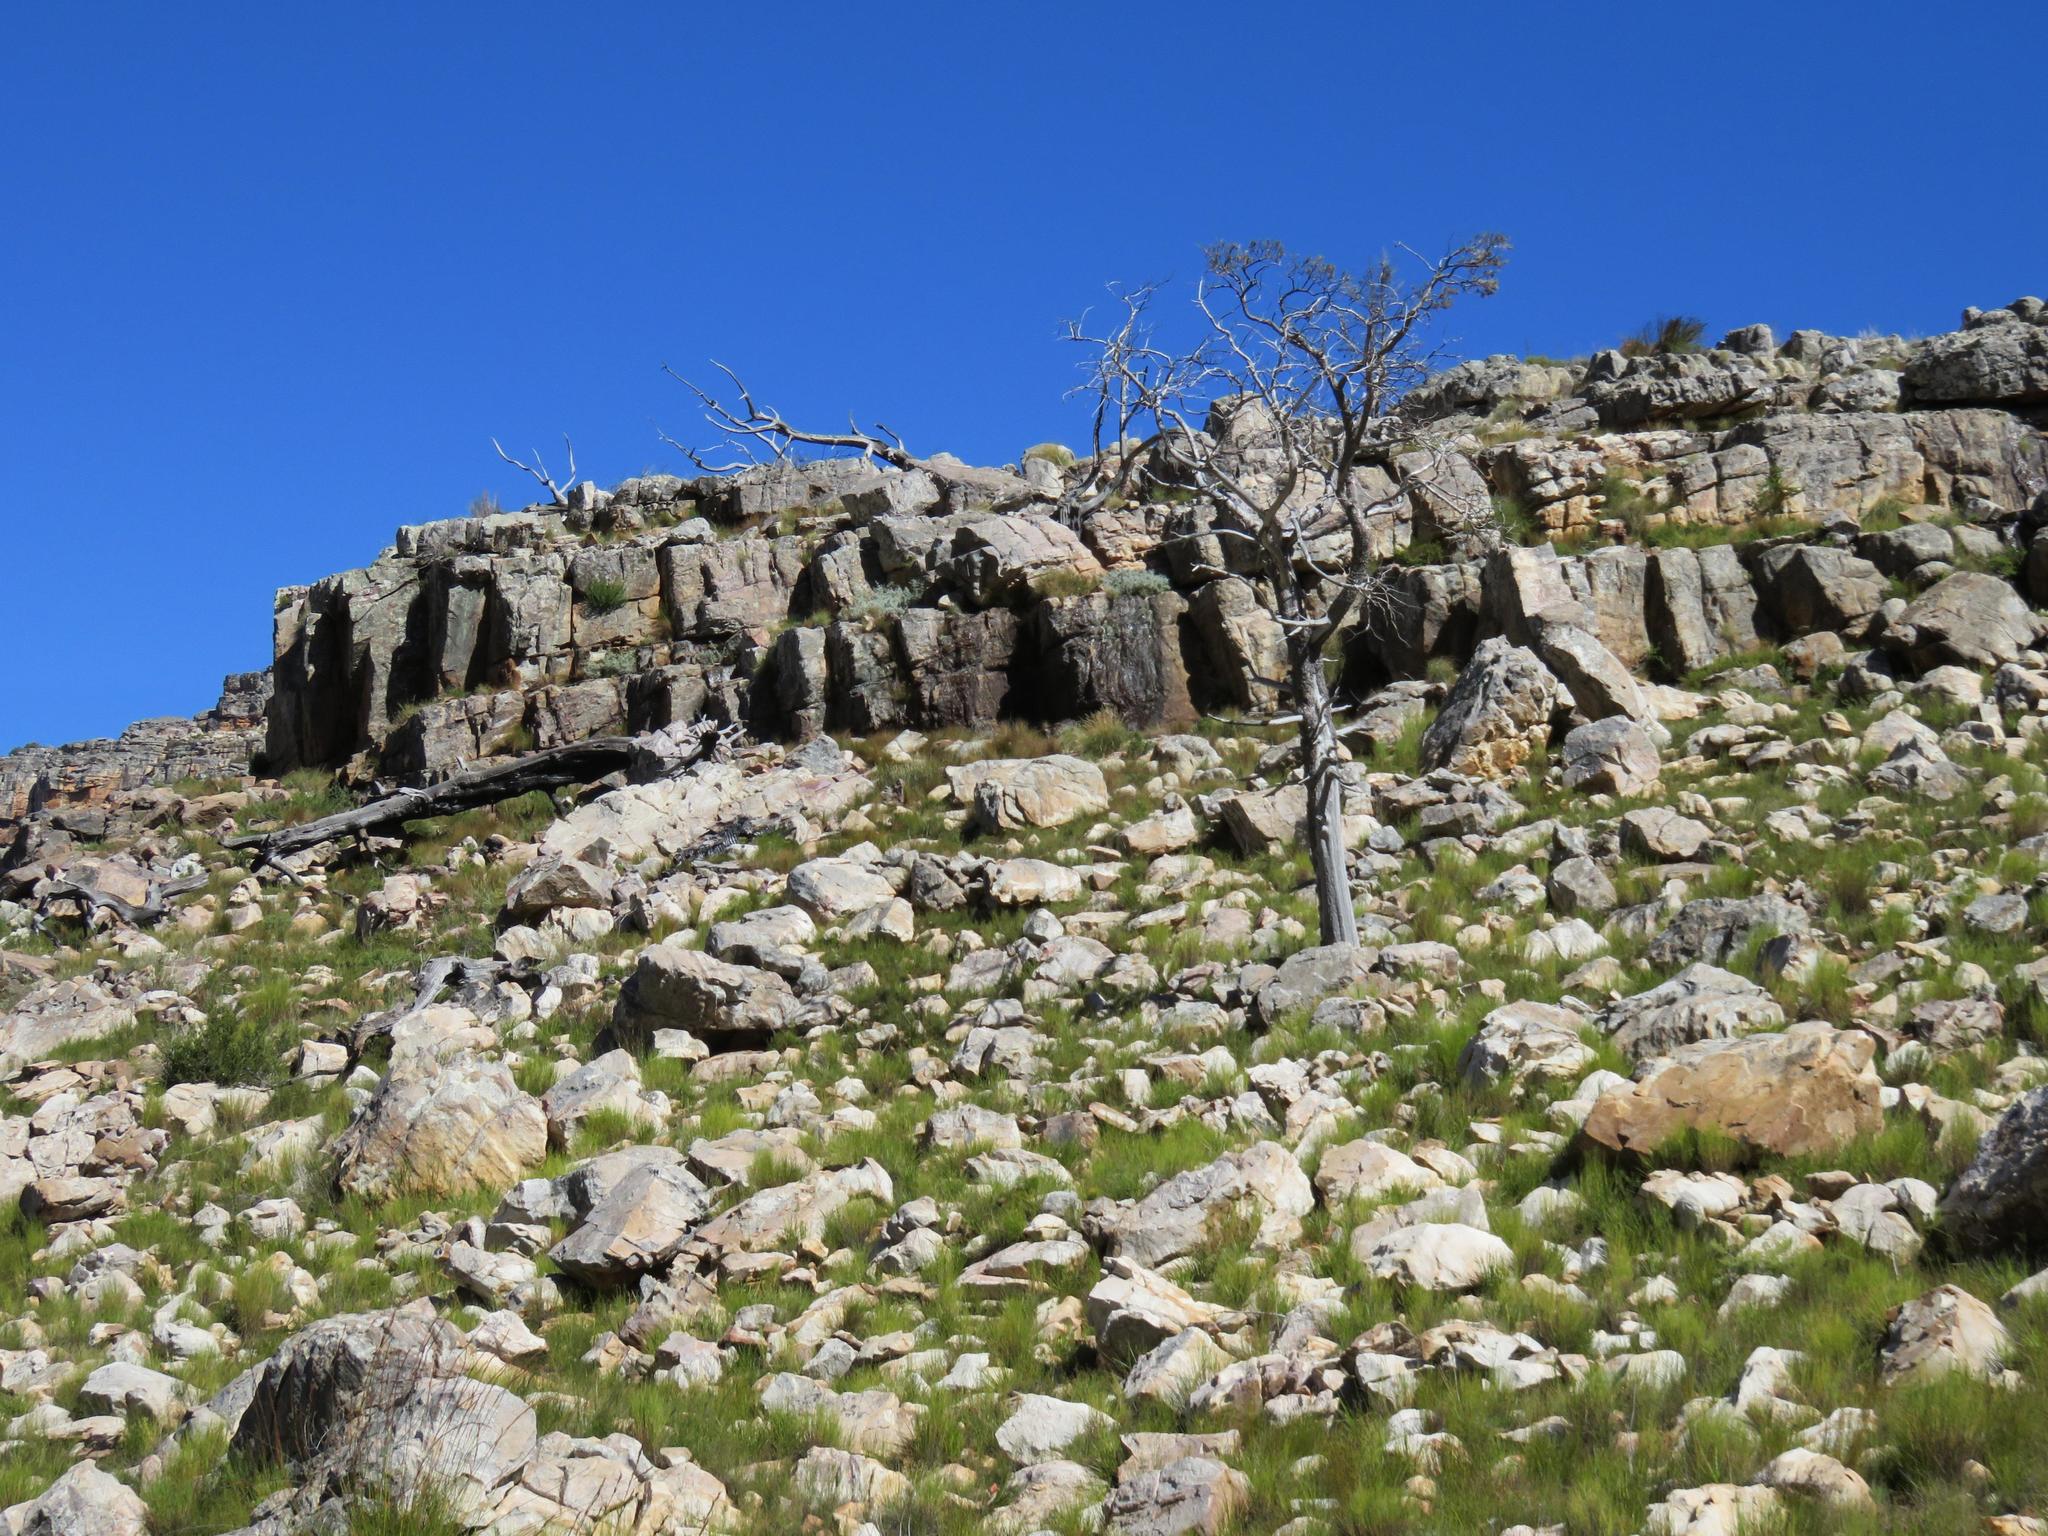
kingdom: Plantae
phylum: Tracheophyta
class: Pinopsida
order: Pinales
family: Cupressaceae
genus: Widdringtonia
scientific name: Widdringtonia nodiflora
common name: Cape cypress
